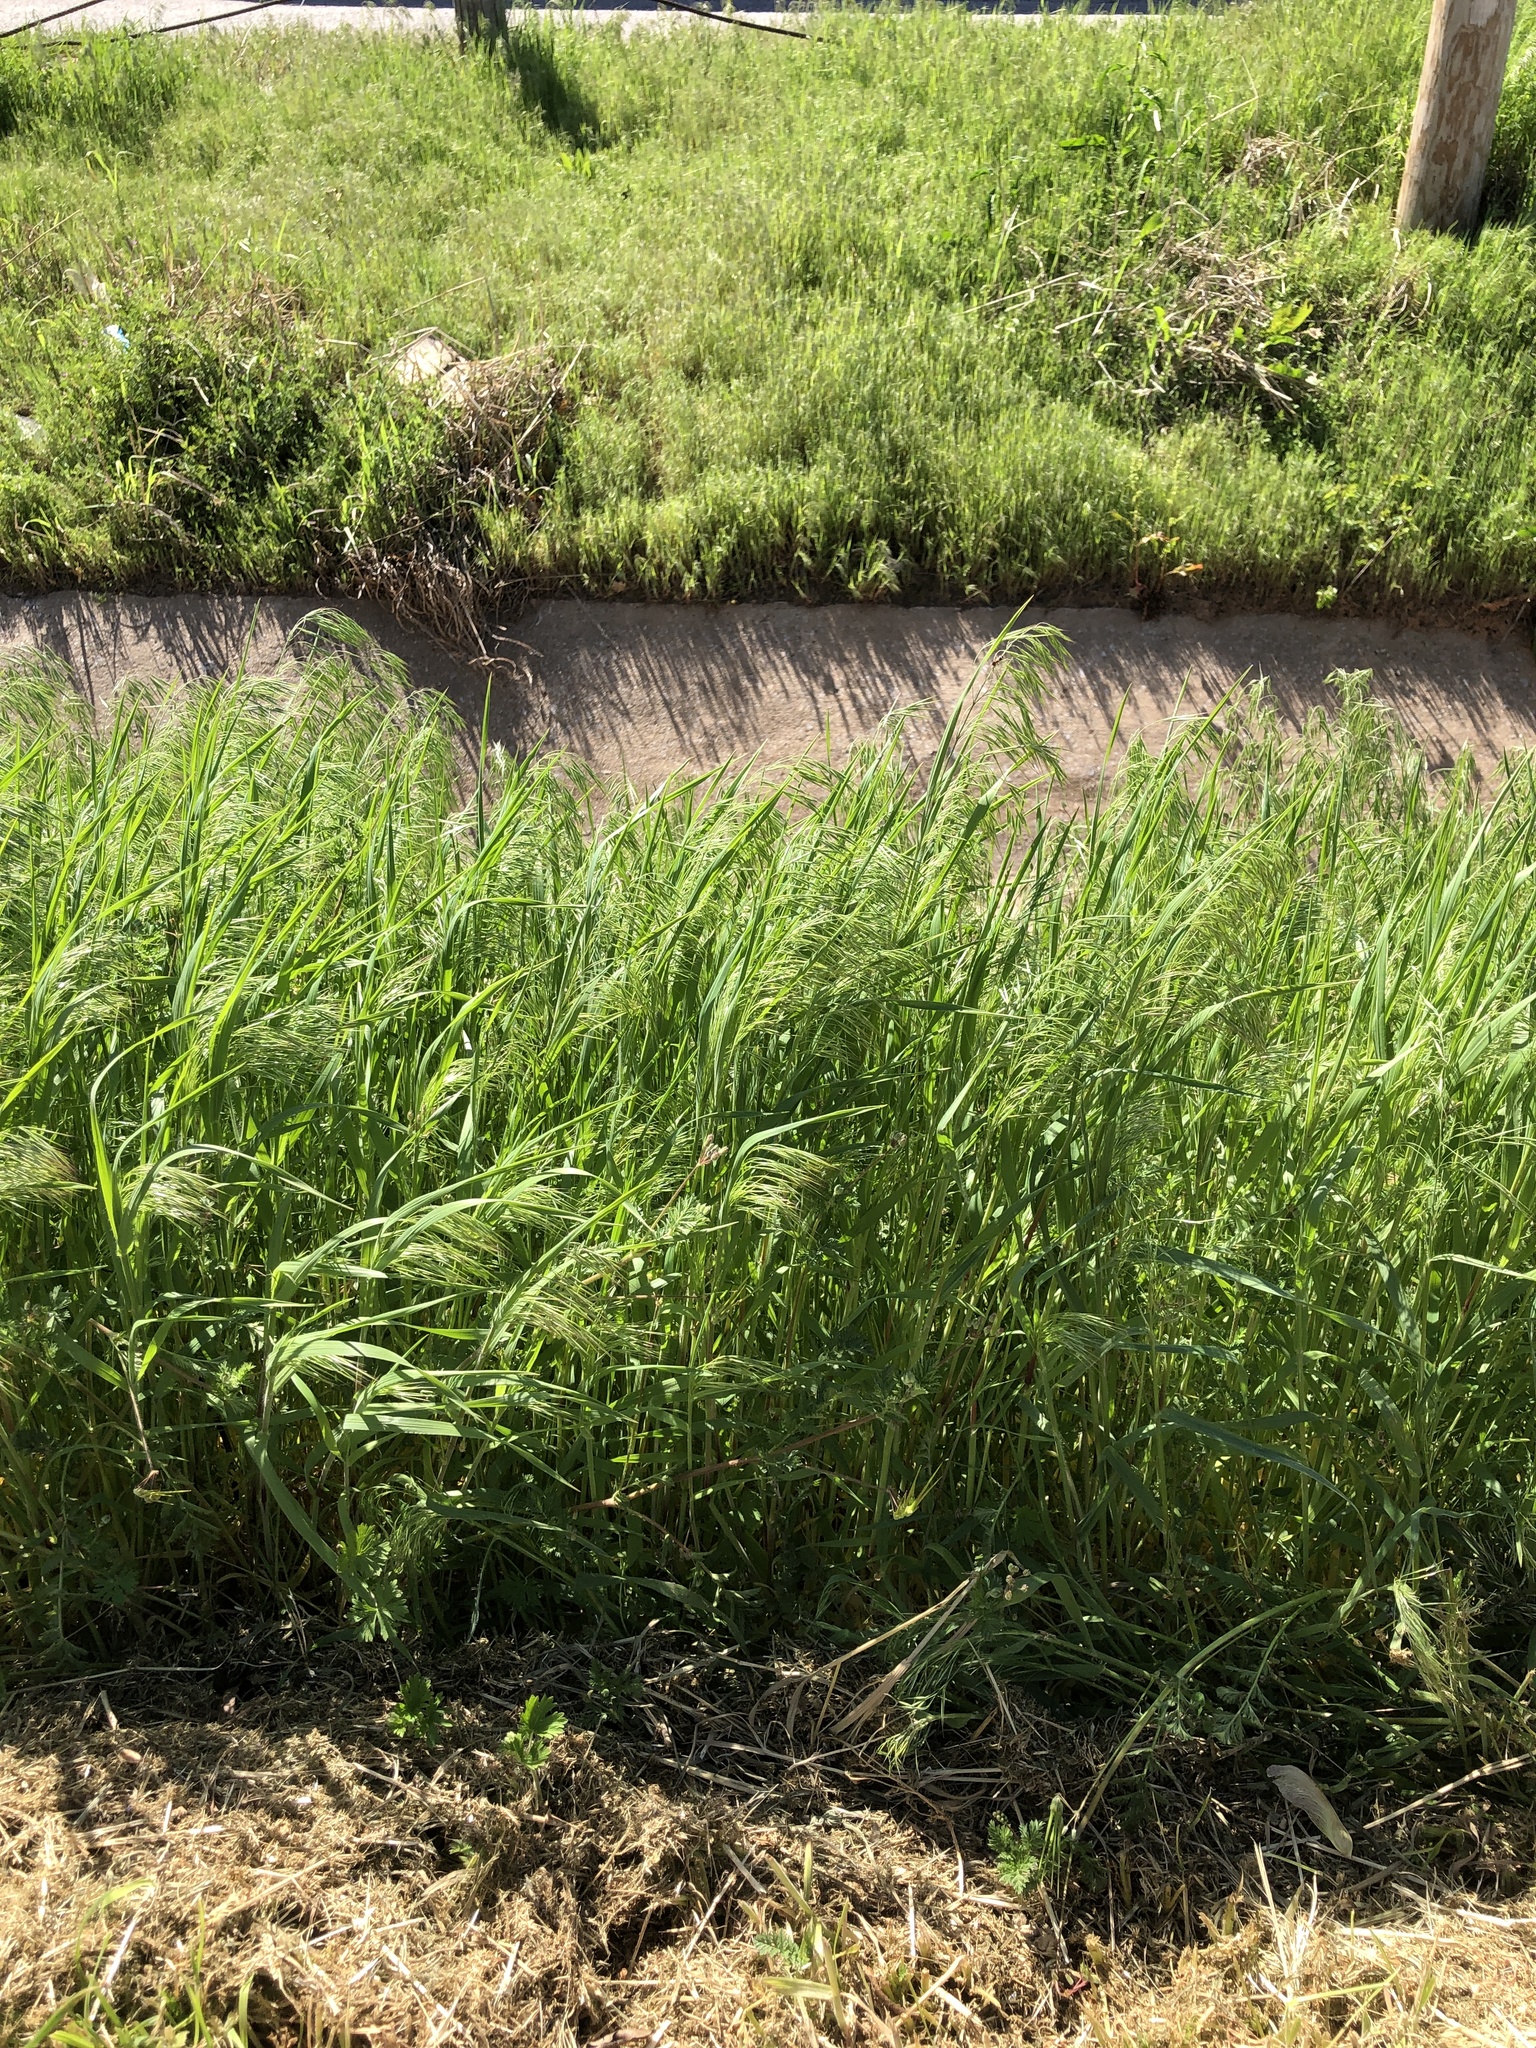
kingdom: Plantae
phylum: Tracheophyta
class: Liliopsida
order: Poales
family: Poaceae
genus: Bromus
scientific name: Bromus tectorum
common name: Cheatgrass
